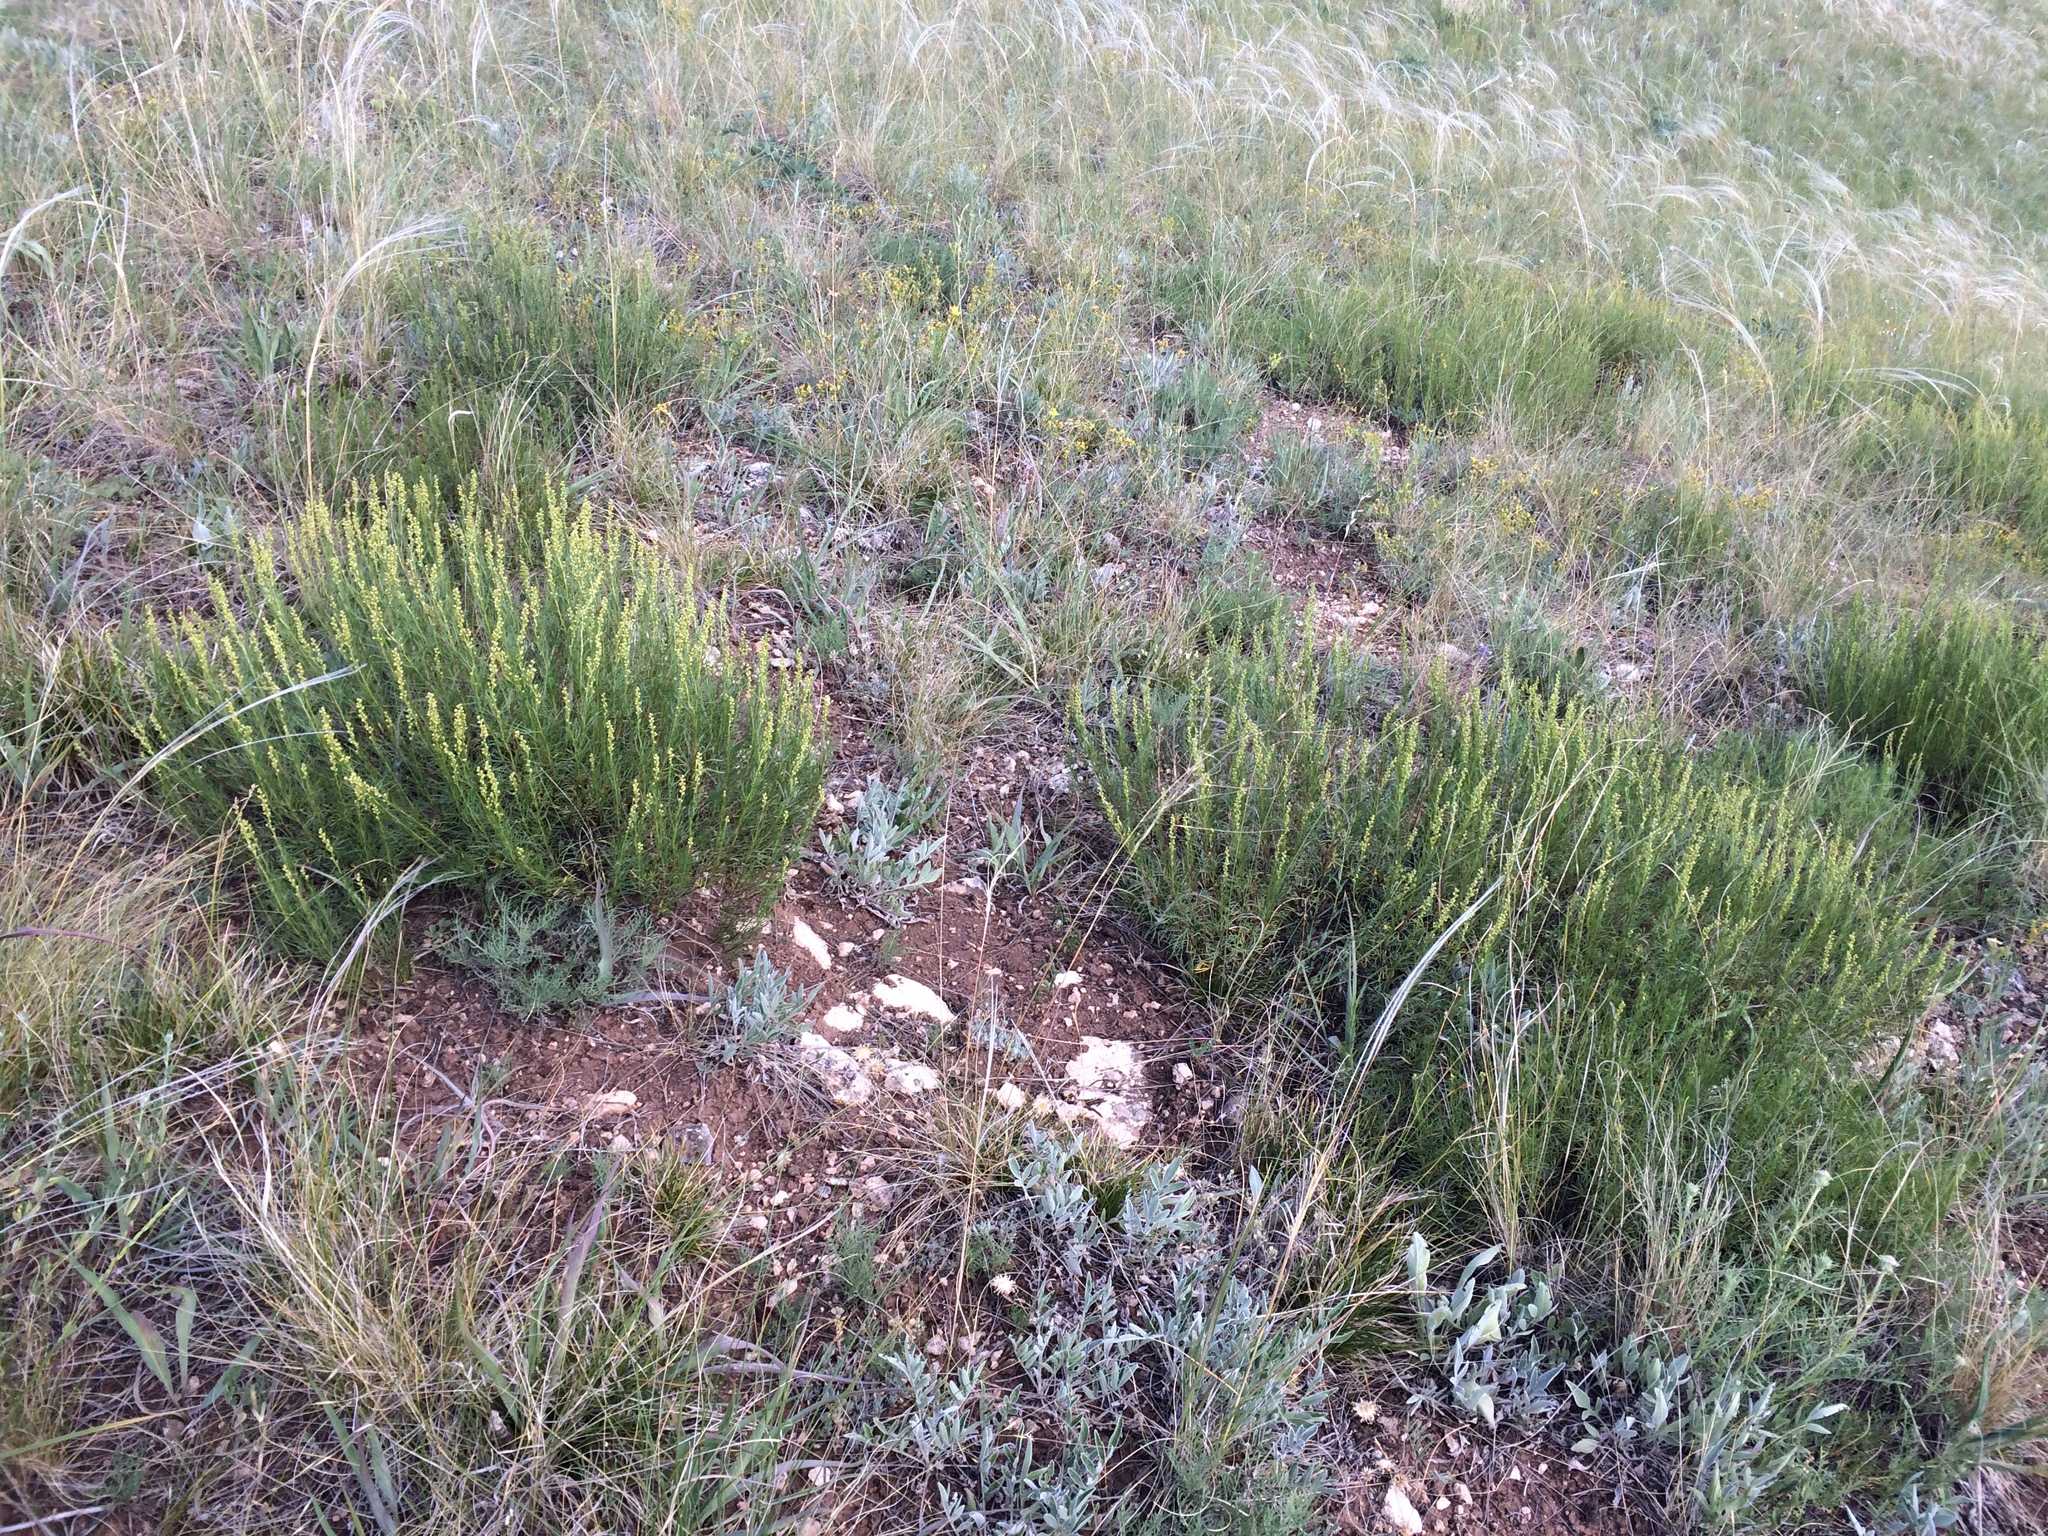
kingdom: Plantae
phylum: Tracheophyta
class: Magnoliopsida
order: Asterales
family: Asteraceae
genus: Artemisia
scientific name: Artemisia salsoloides
